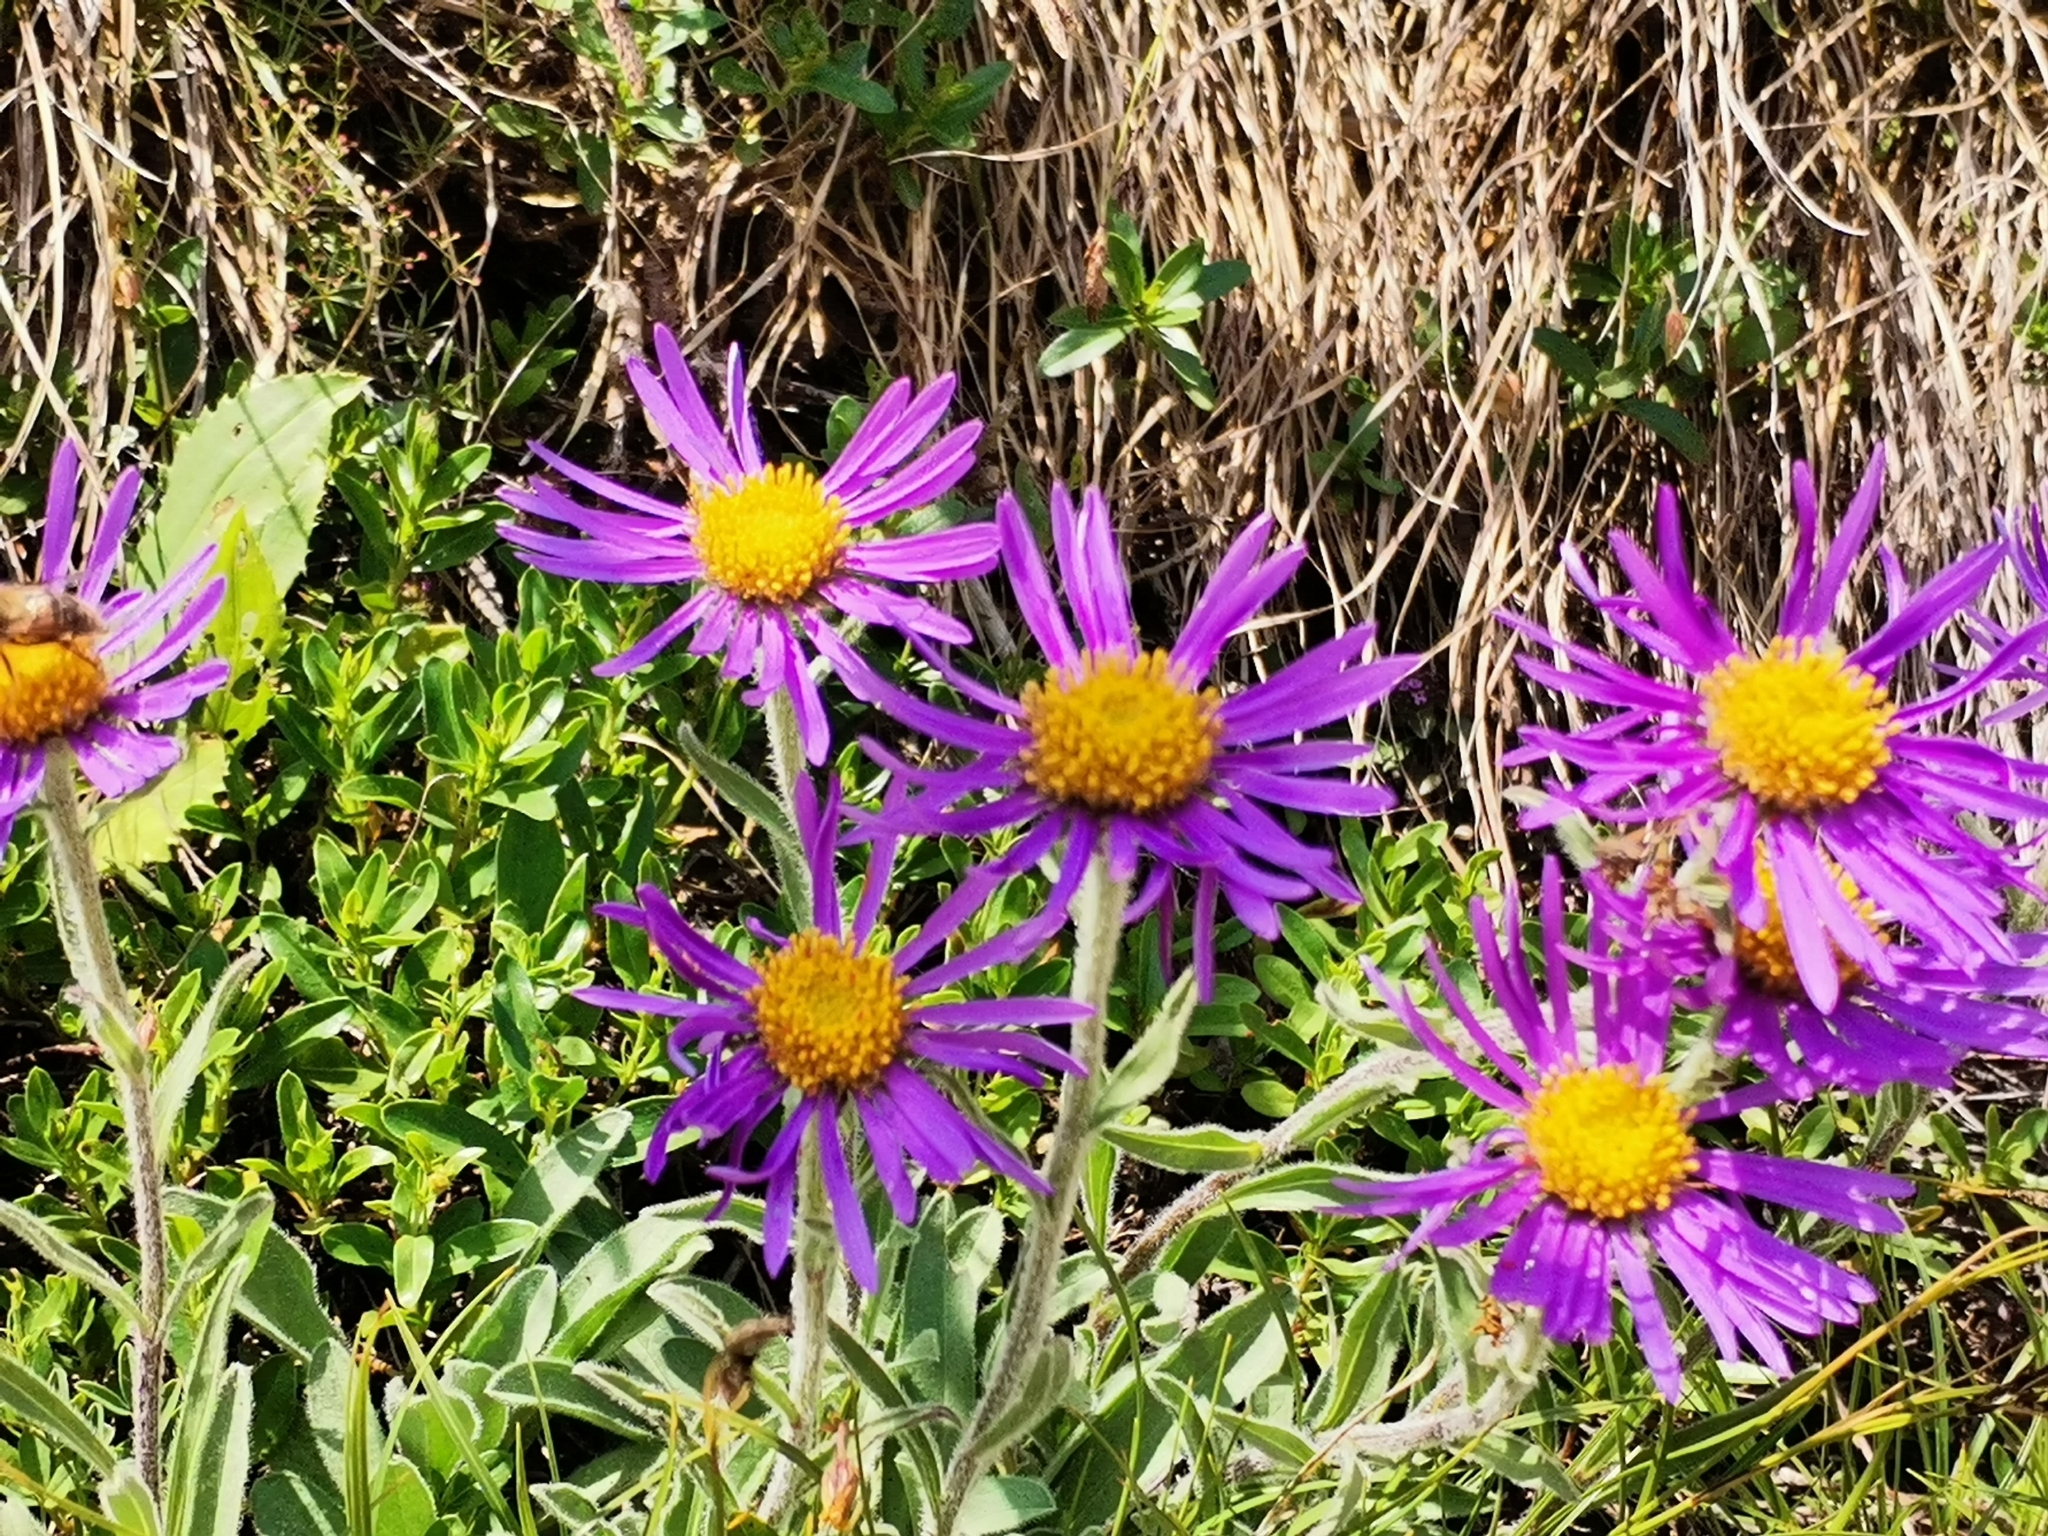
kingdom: Plantae
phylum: Tracheophyta
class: Magnoliopsida
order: Asterales
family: Asteraceae
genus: Aster
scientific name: Aster alpinus
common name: Alpine aster
